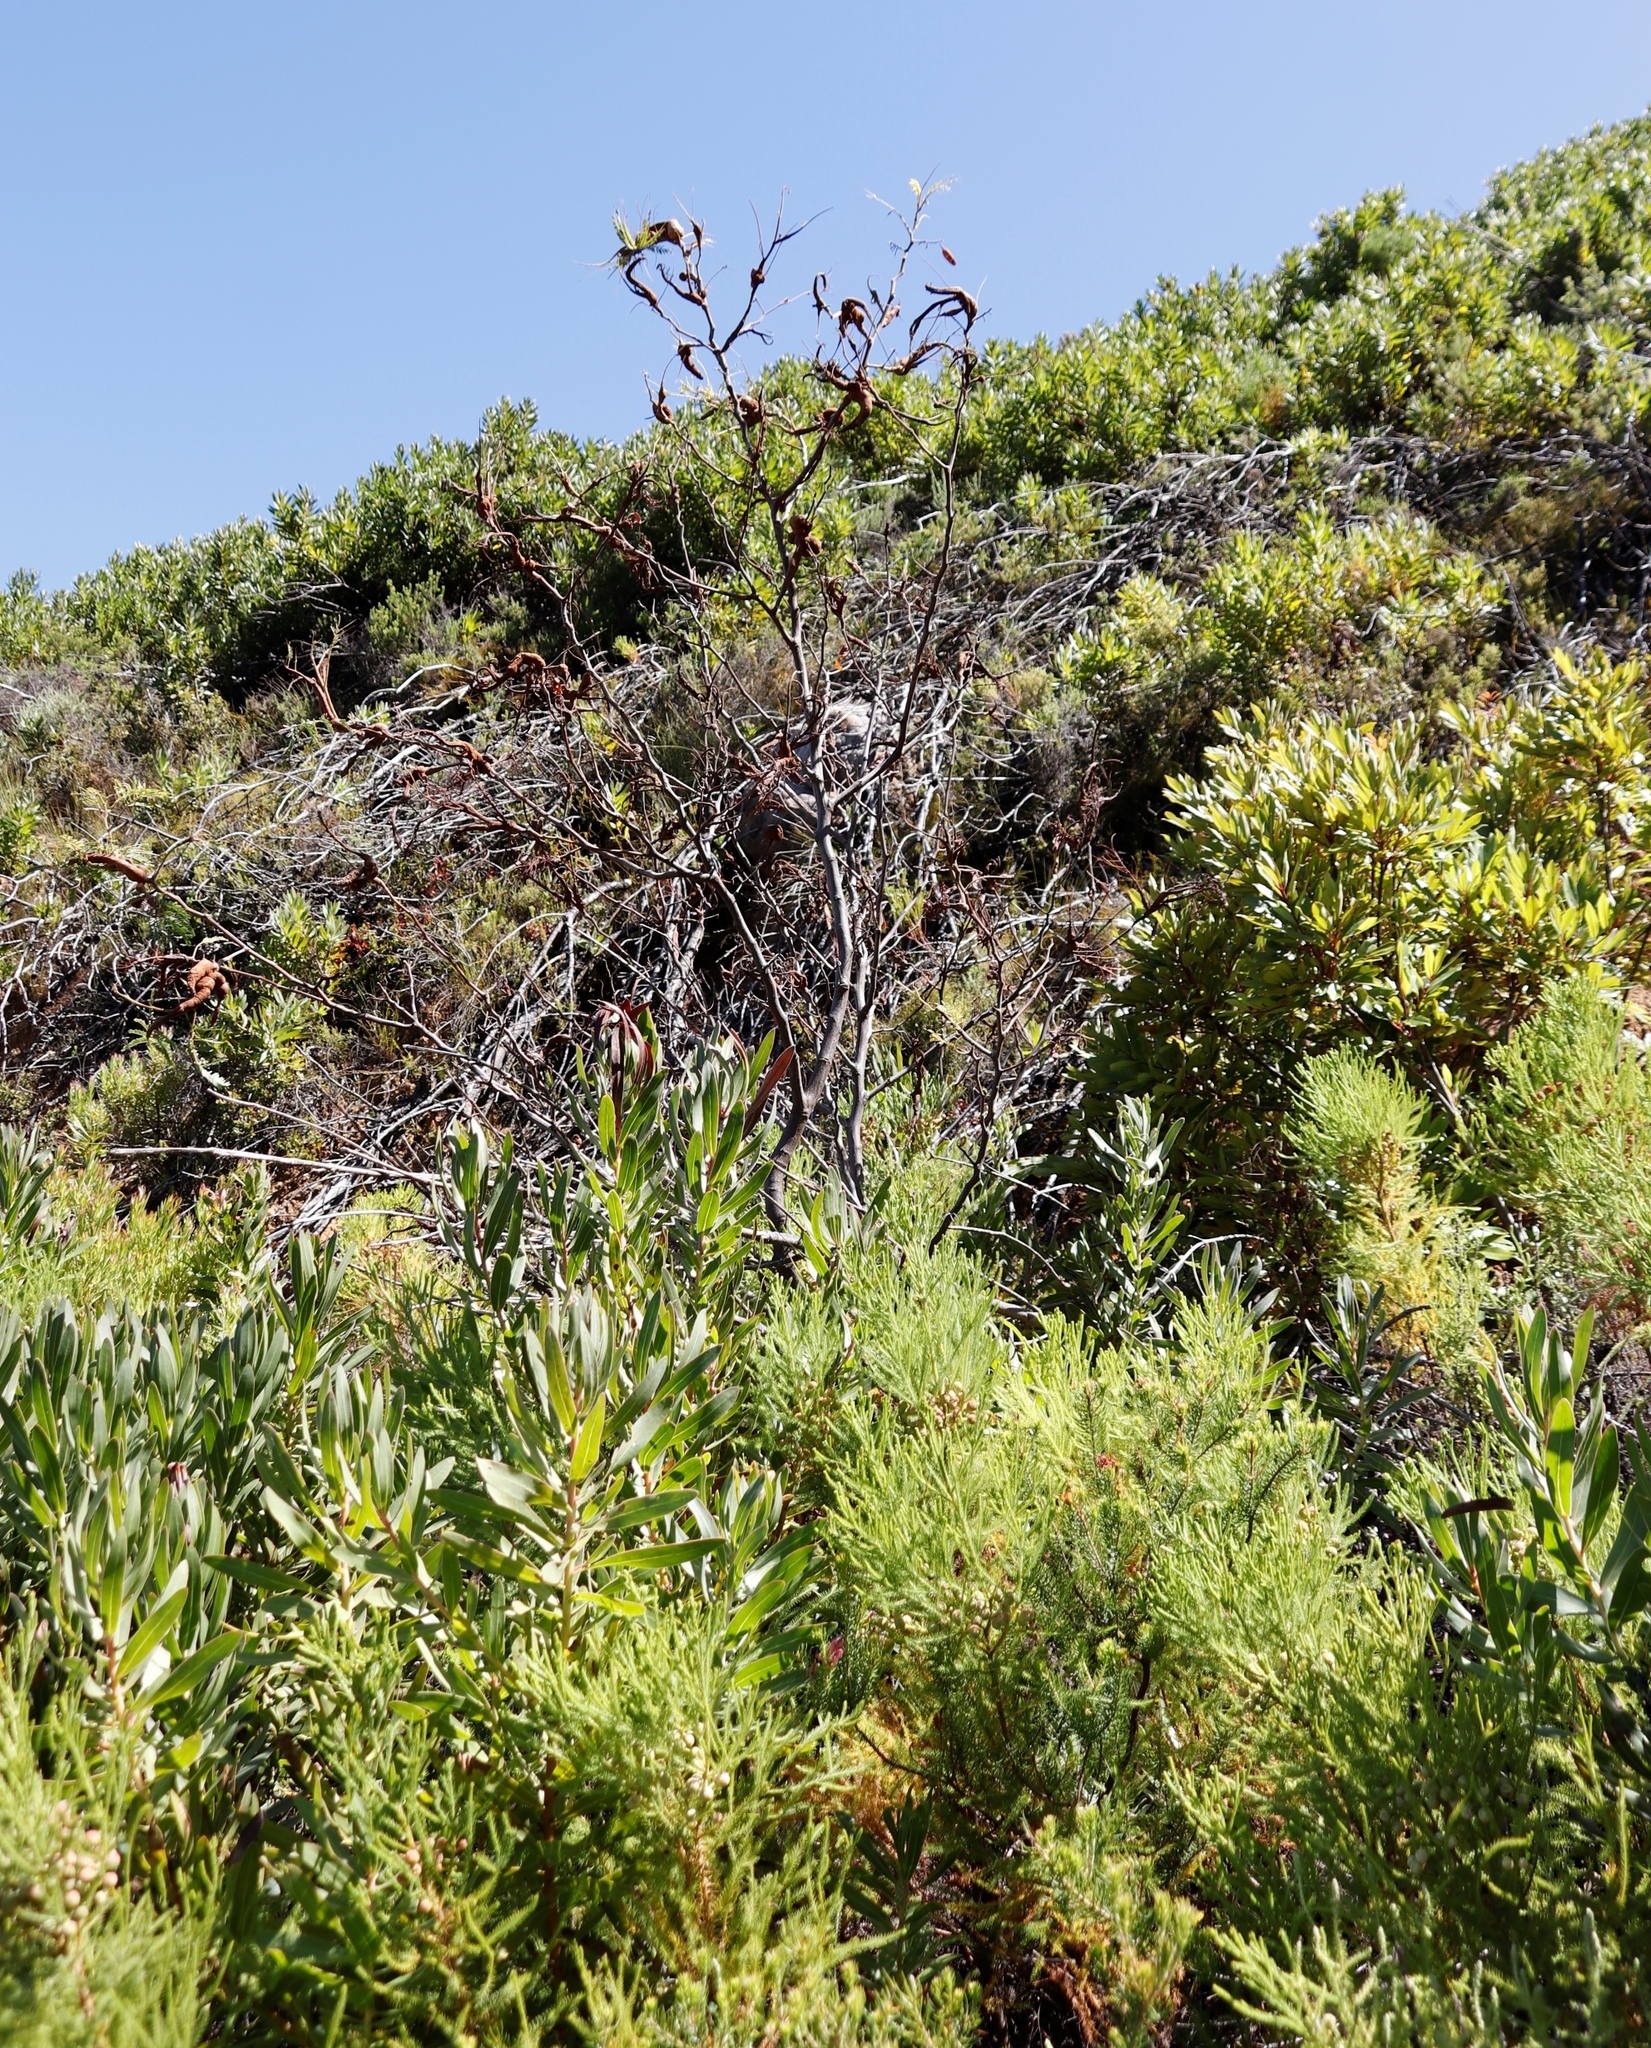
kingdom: Plantae
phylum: Tracheophyta
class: Magnoliopsida
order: Fabales
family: Fabaceae
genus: Paraserianthes
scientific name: Paraserianthes lophantha
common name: Plume albizia
